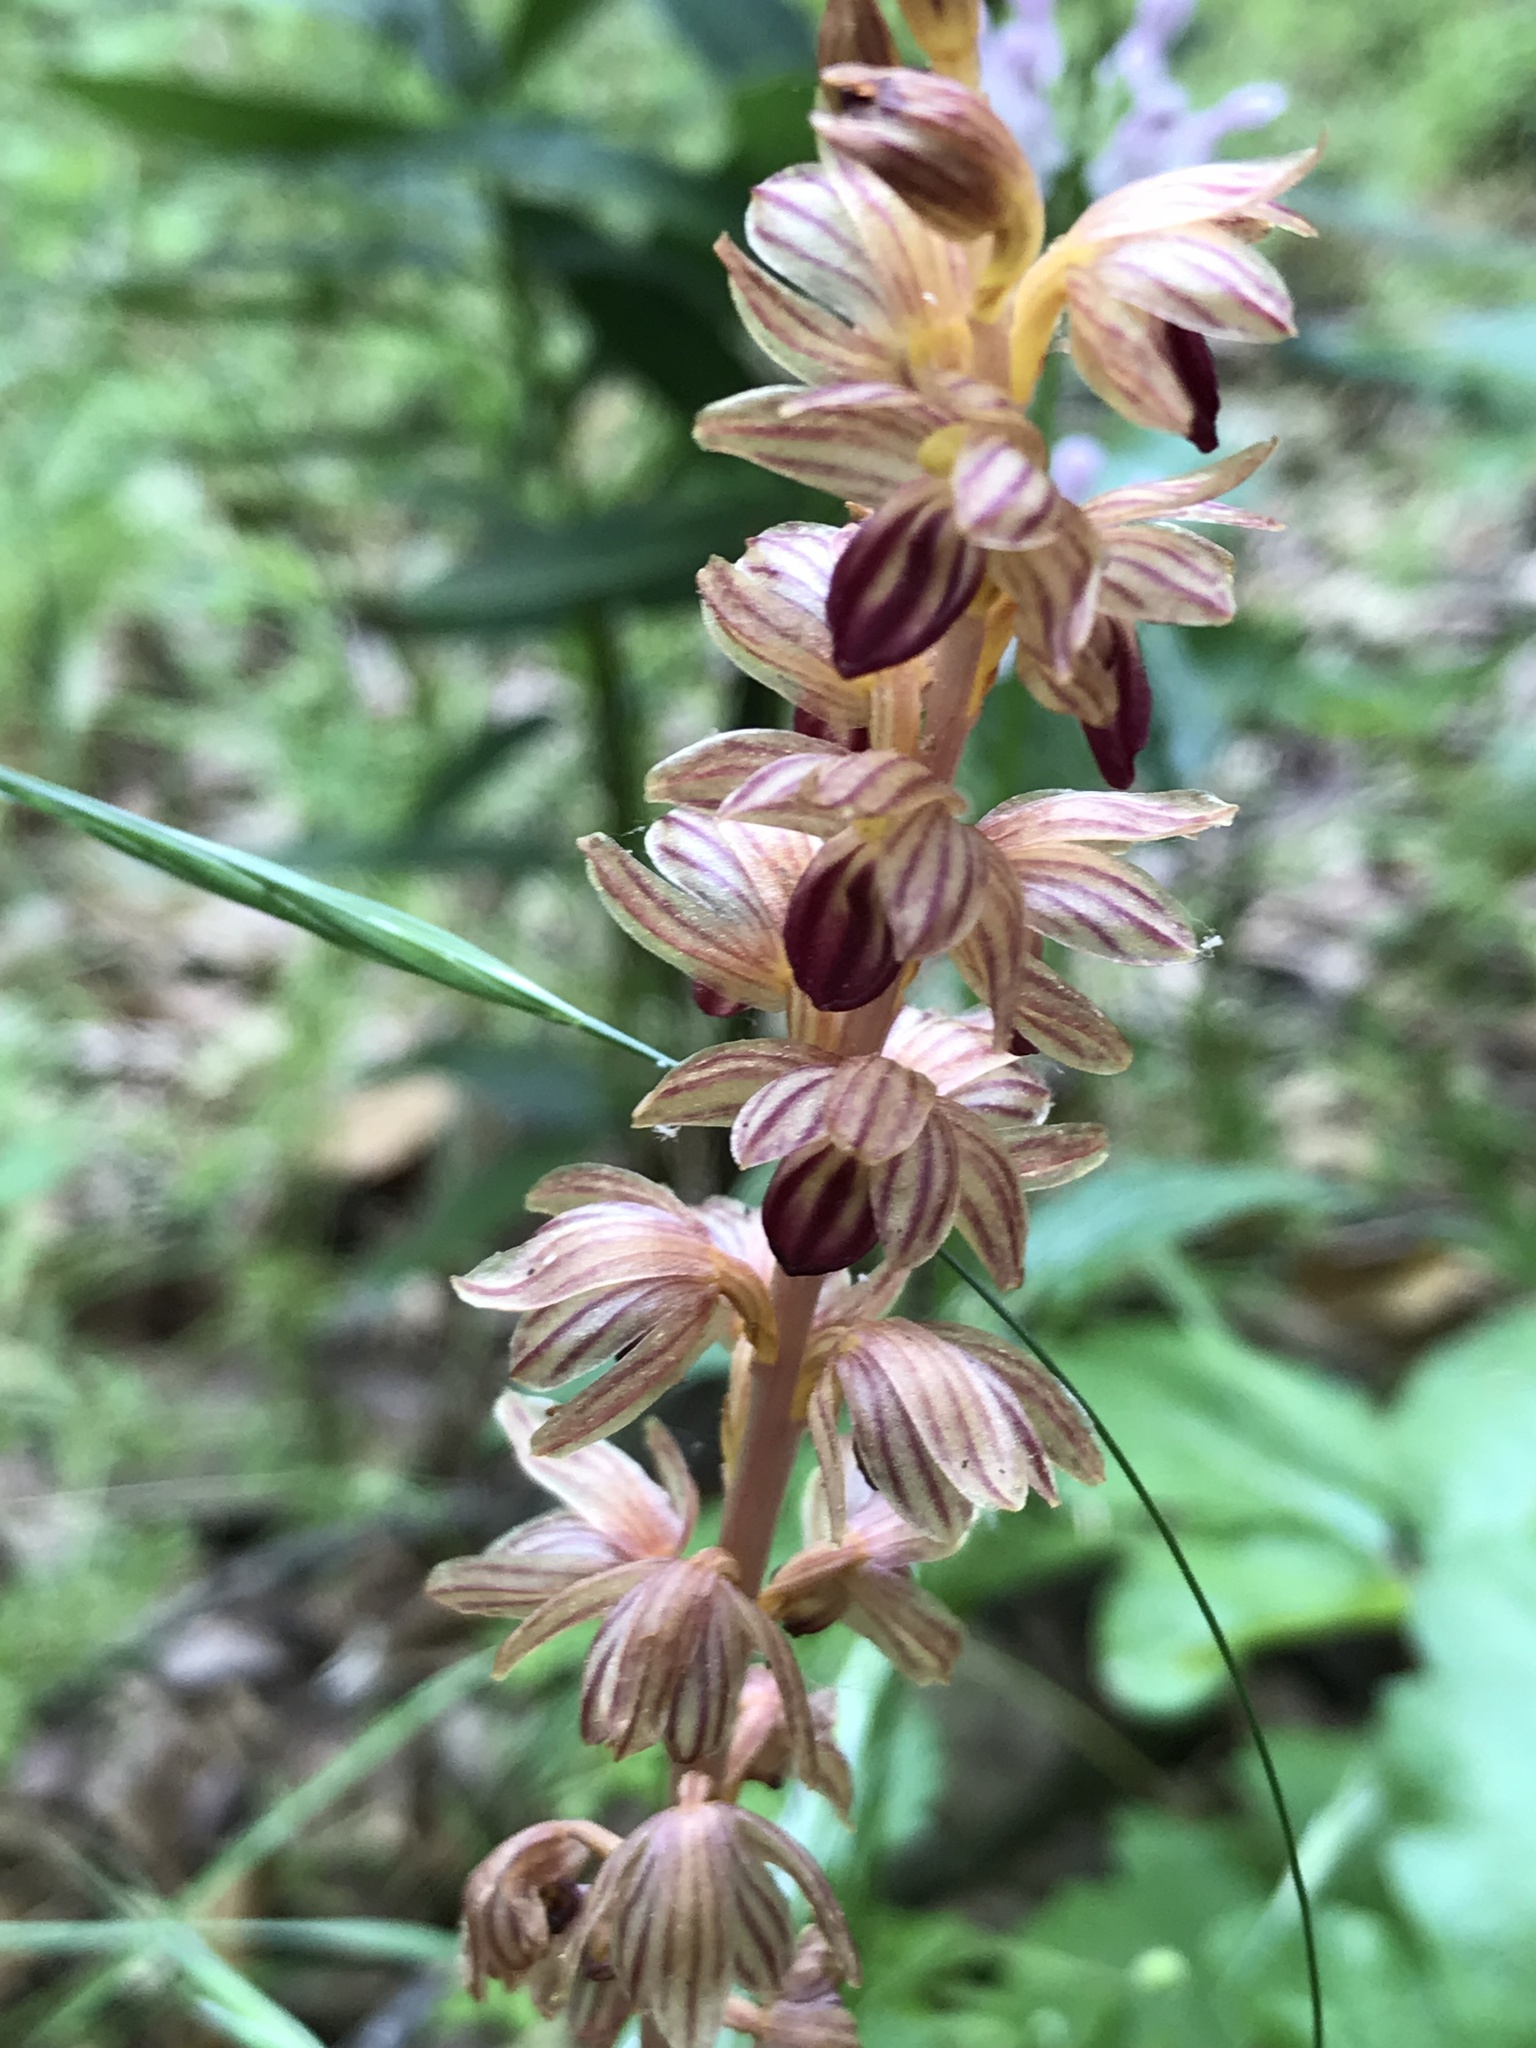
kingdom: Plantae
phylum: Tracheophyta
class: Liliopsida
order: Asparagales
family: Orchidaceae
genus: Corallorhiza
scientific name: Corallorhiza striata
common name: Hooded coralroot
